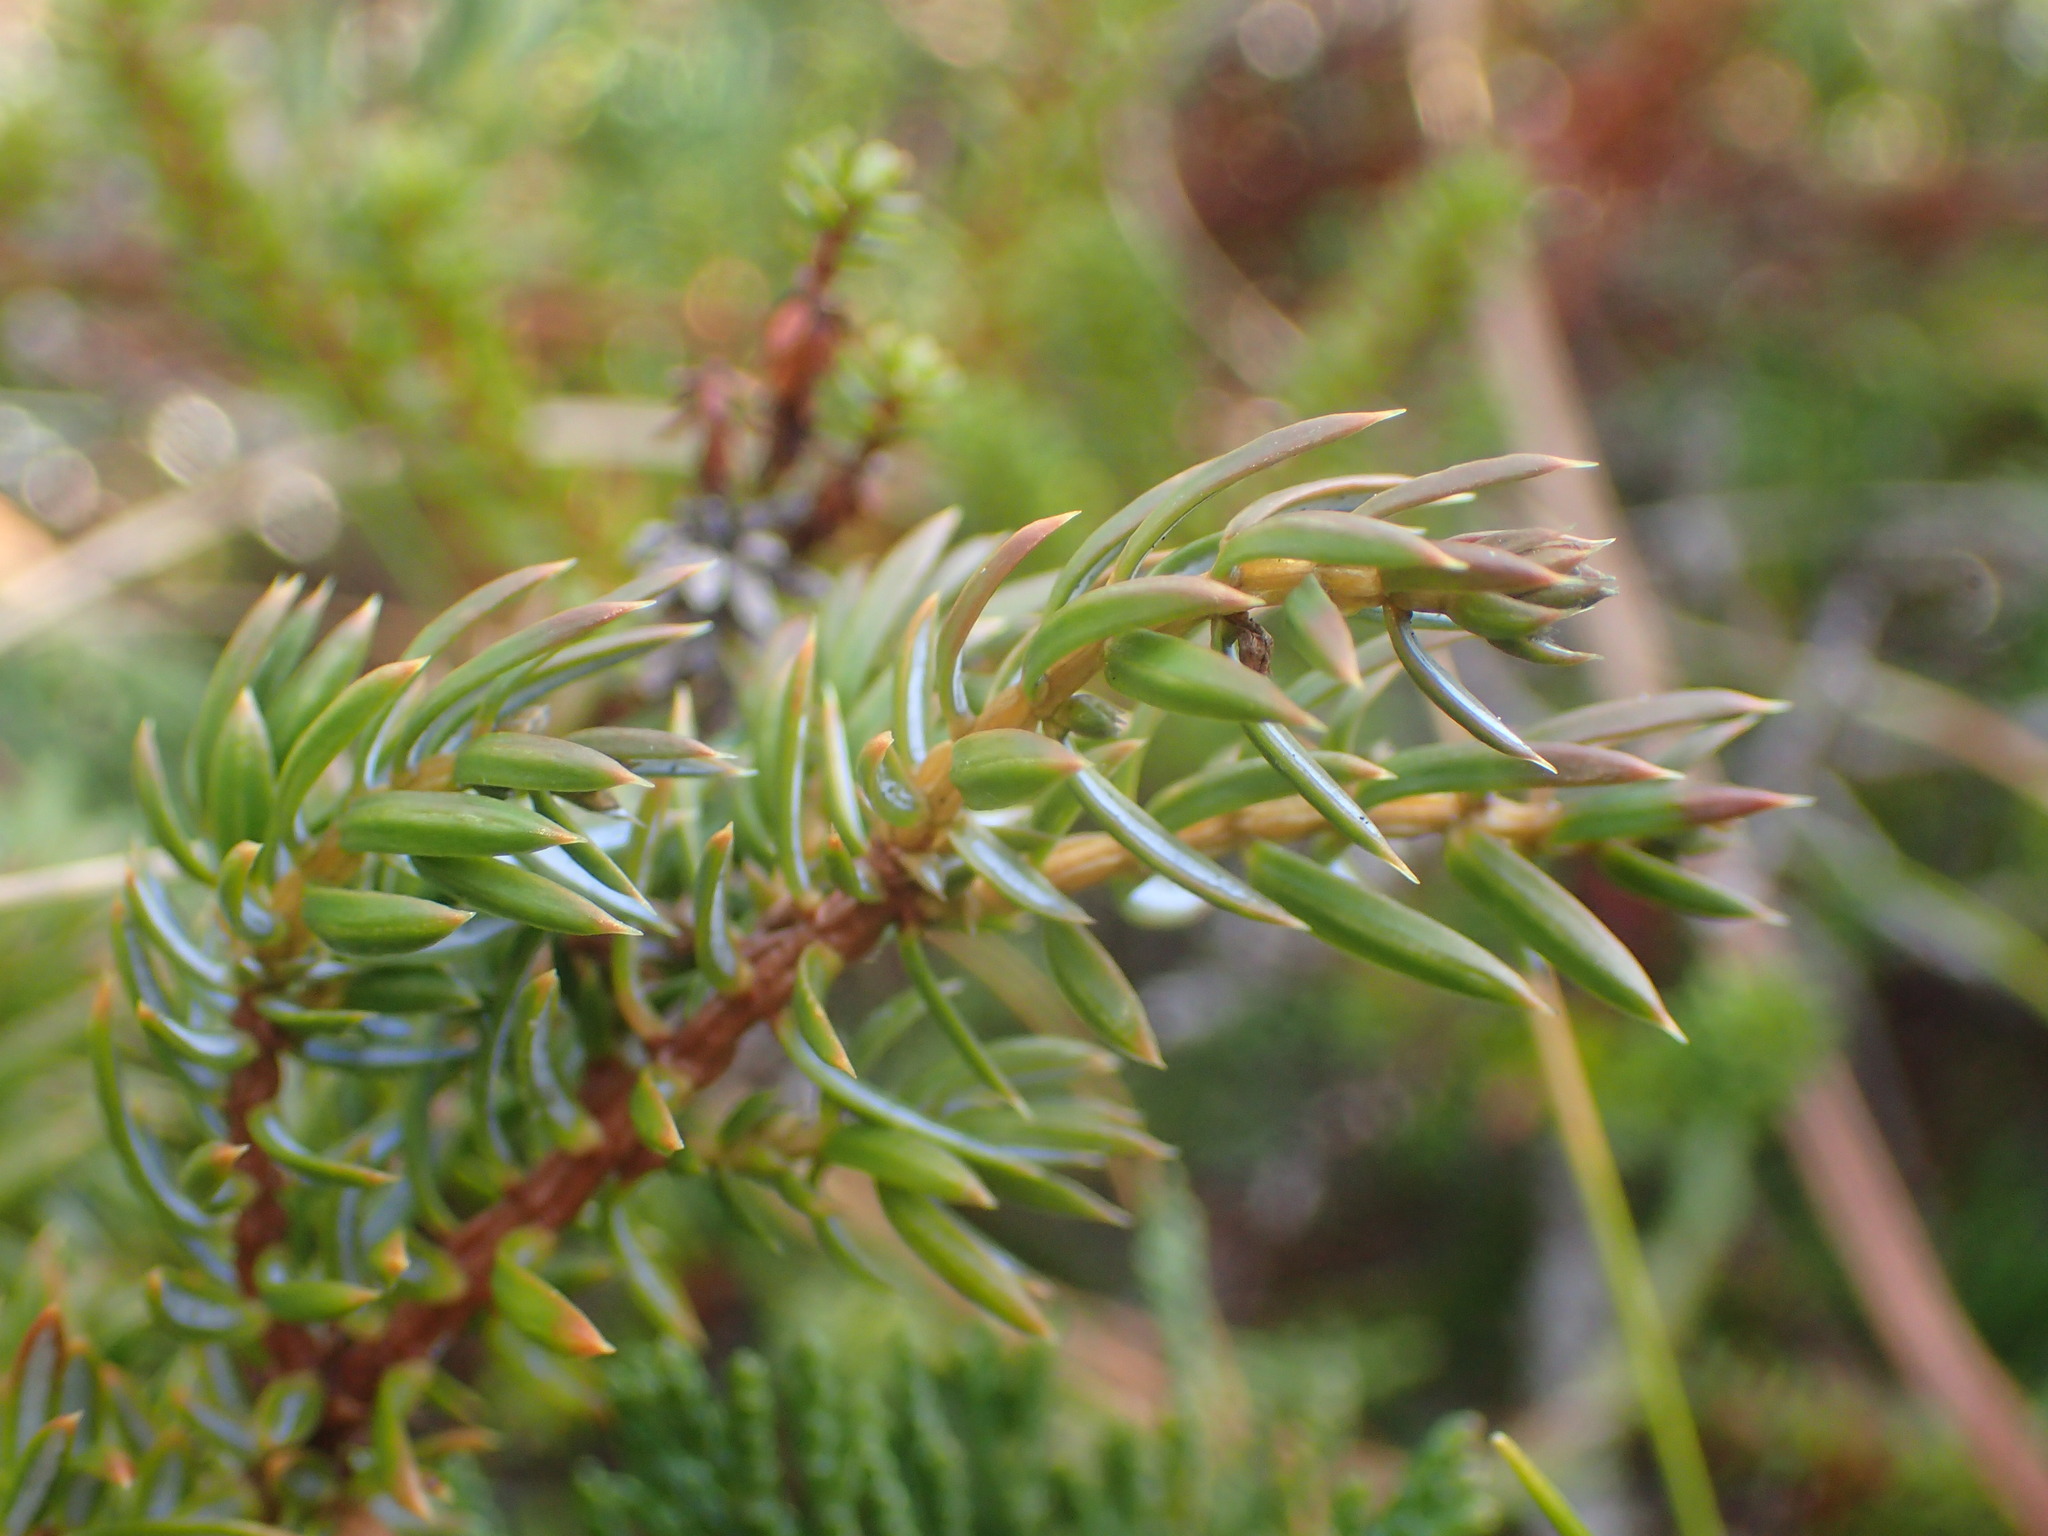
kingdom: Plantae
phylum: Tracheophyta
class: Pinopsida
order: Pinales
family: Cupressaceae
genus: Juniperus
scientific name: Juniperus communis
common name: Common juniper
